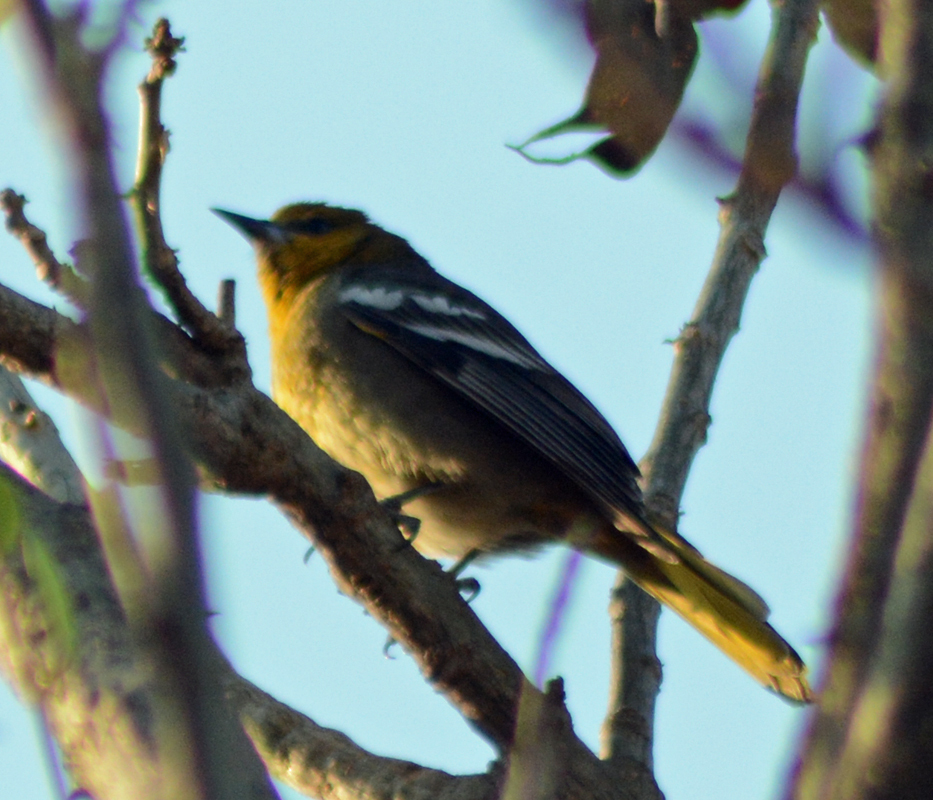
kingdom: Animalia
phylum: Chordata
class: Aves
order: Passeriformes
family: Icteridae
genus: Icterus
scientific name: Icterus abeillei
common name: Black-backed oriole
